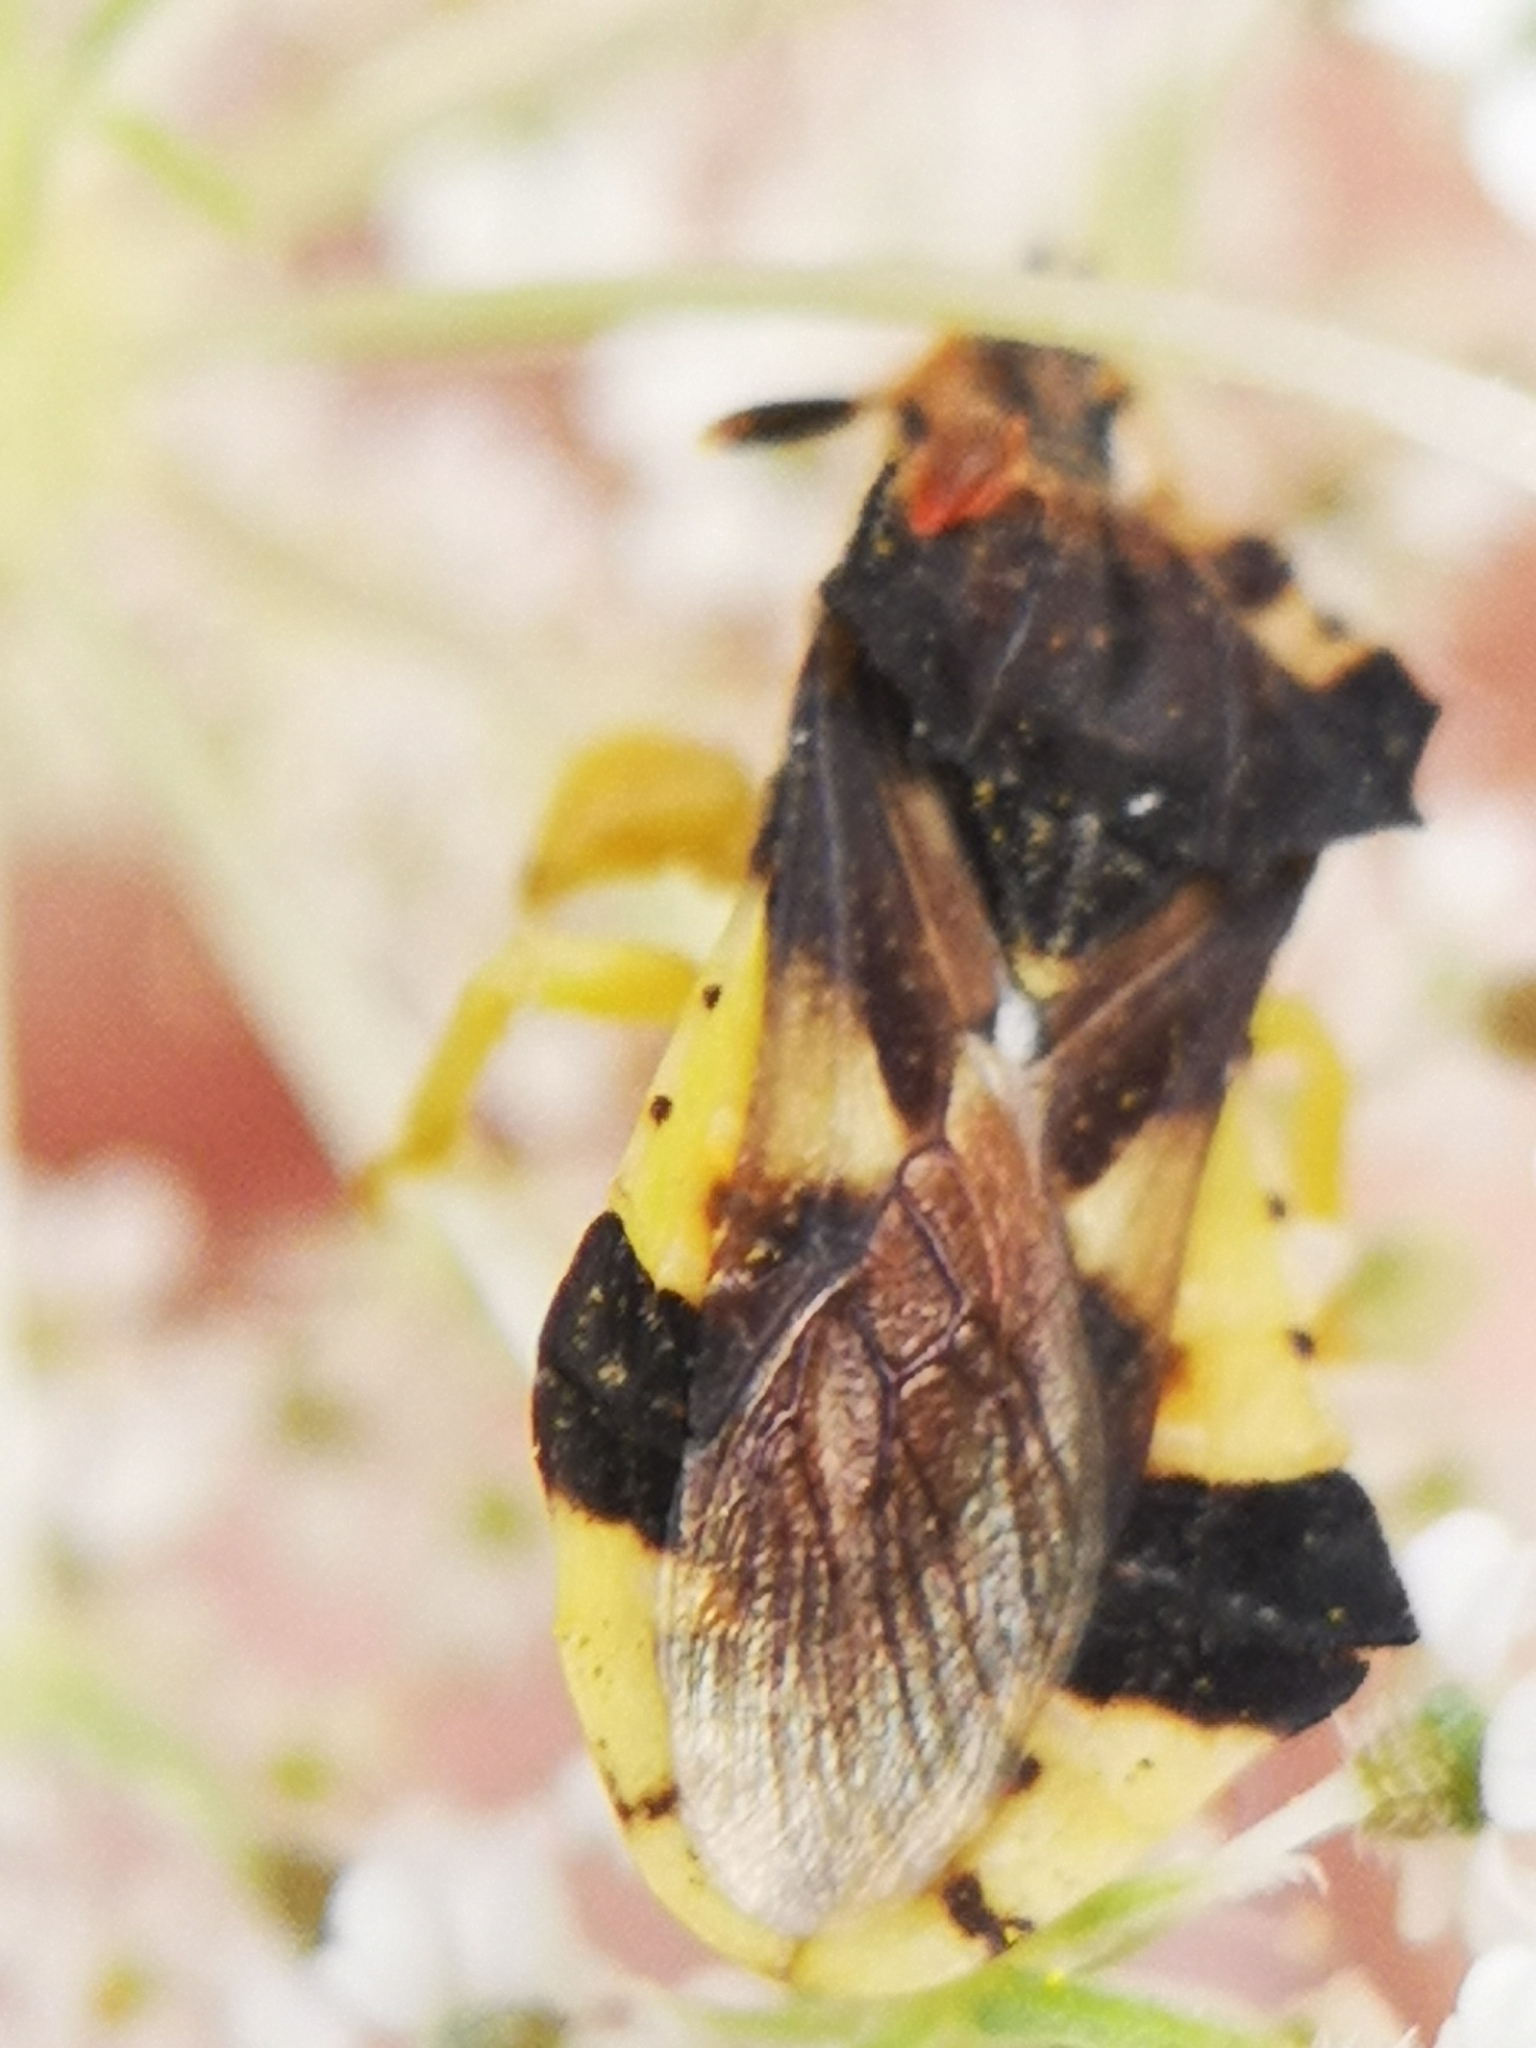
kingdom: Animalia
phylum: Arthropoda
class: Insecta
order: Hemiptera
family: Reduviidae
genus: Phymata
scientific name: Phymata americana
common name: Jagged ambush bug
